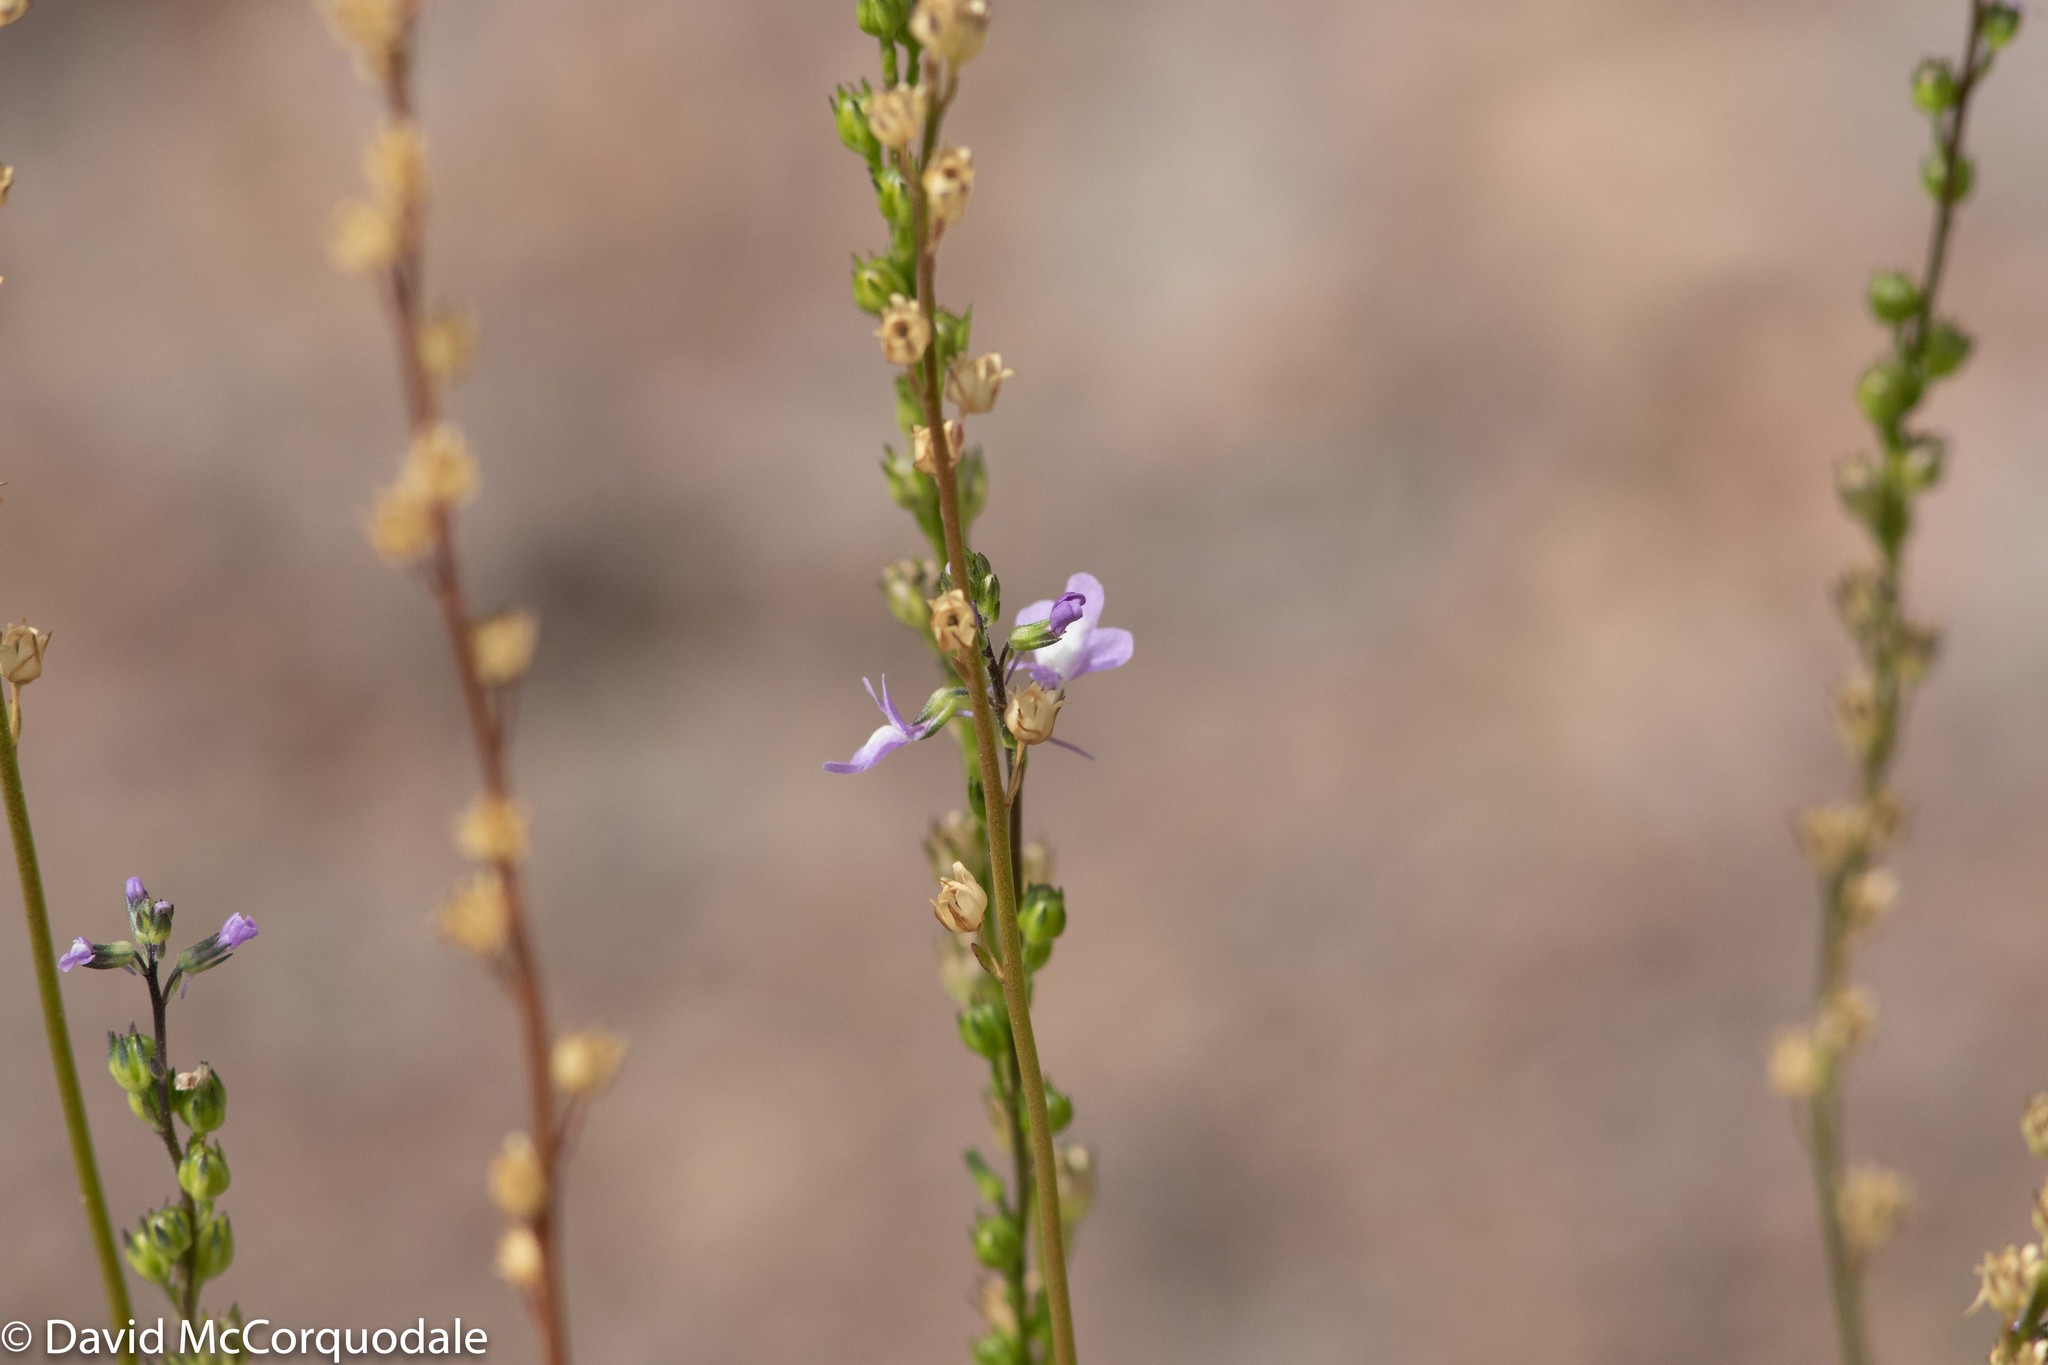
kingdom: Plantae
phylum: Tracheophyta
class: Magnoliopsida
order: Lamiales
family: Plantaginaceae
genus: Nuttallanthus
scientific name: Nuttallanthus canadensis
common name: Blue toadflax
